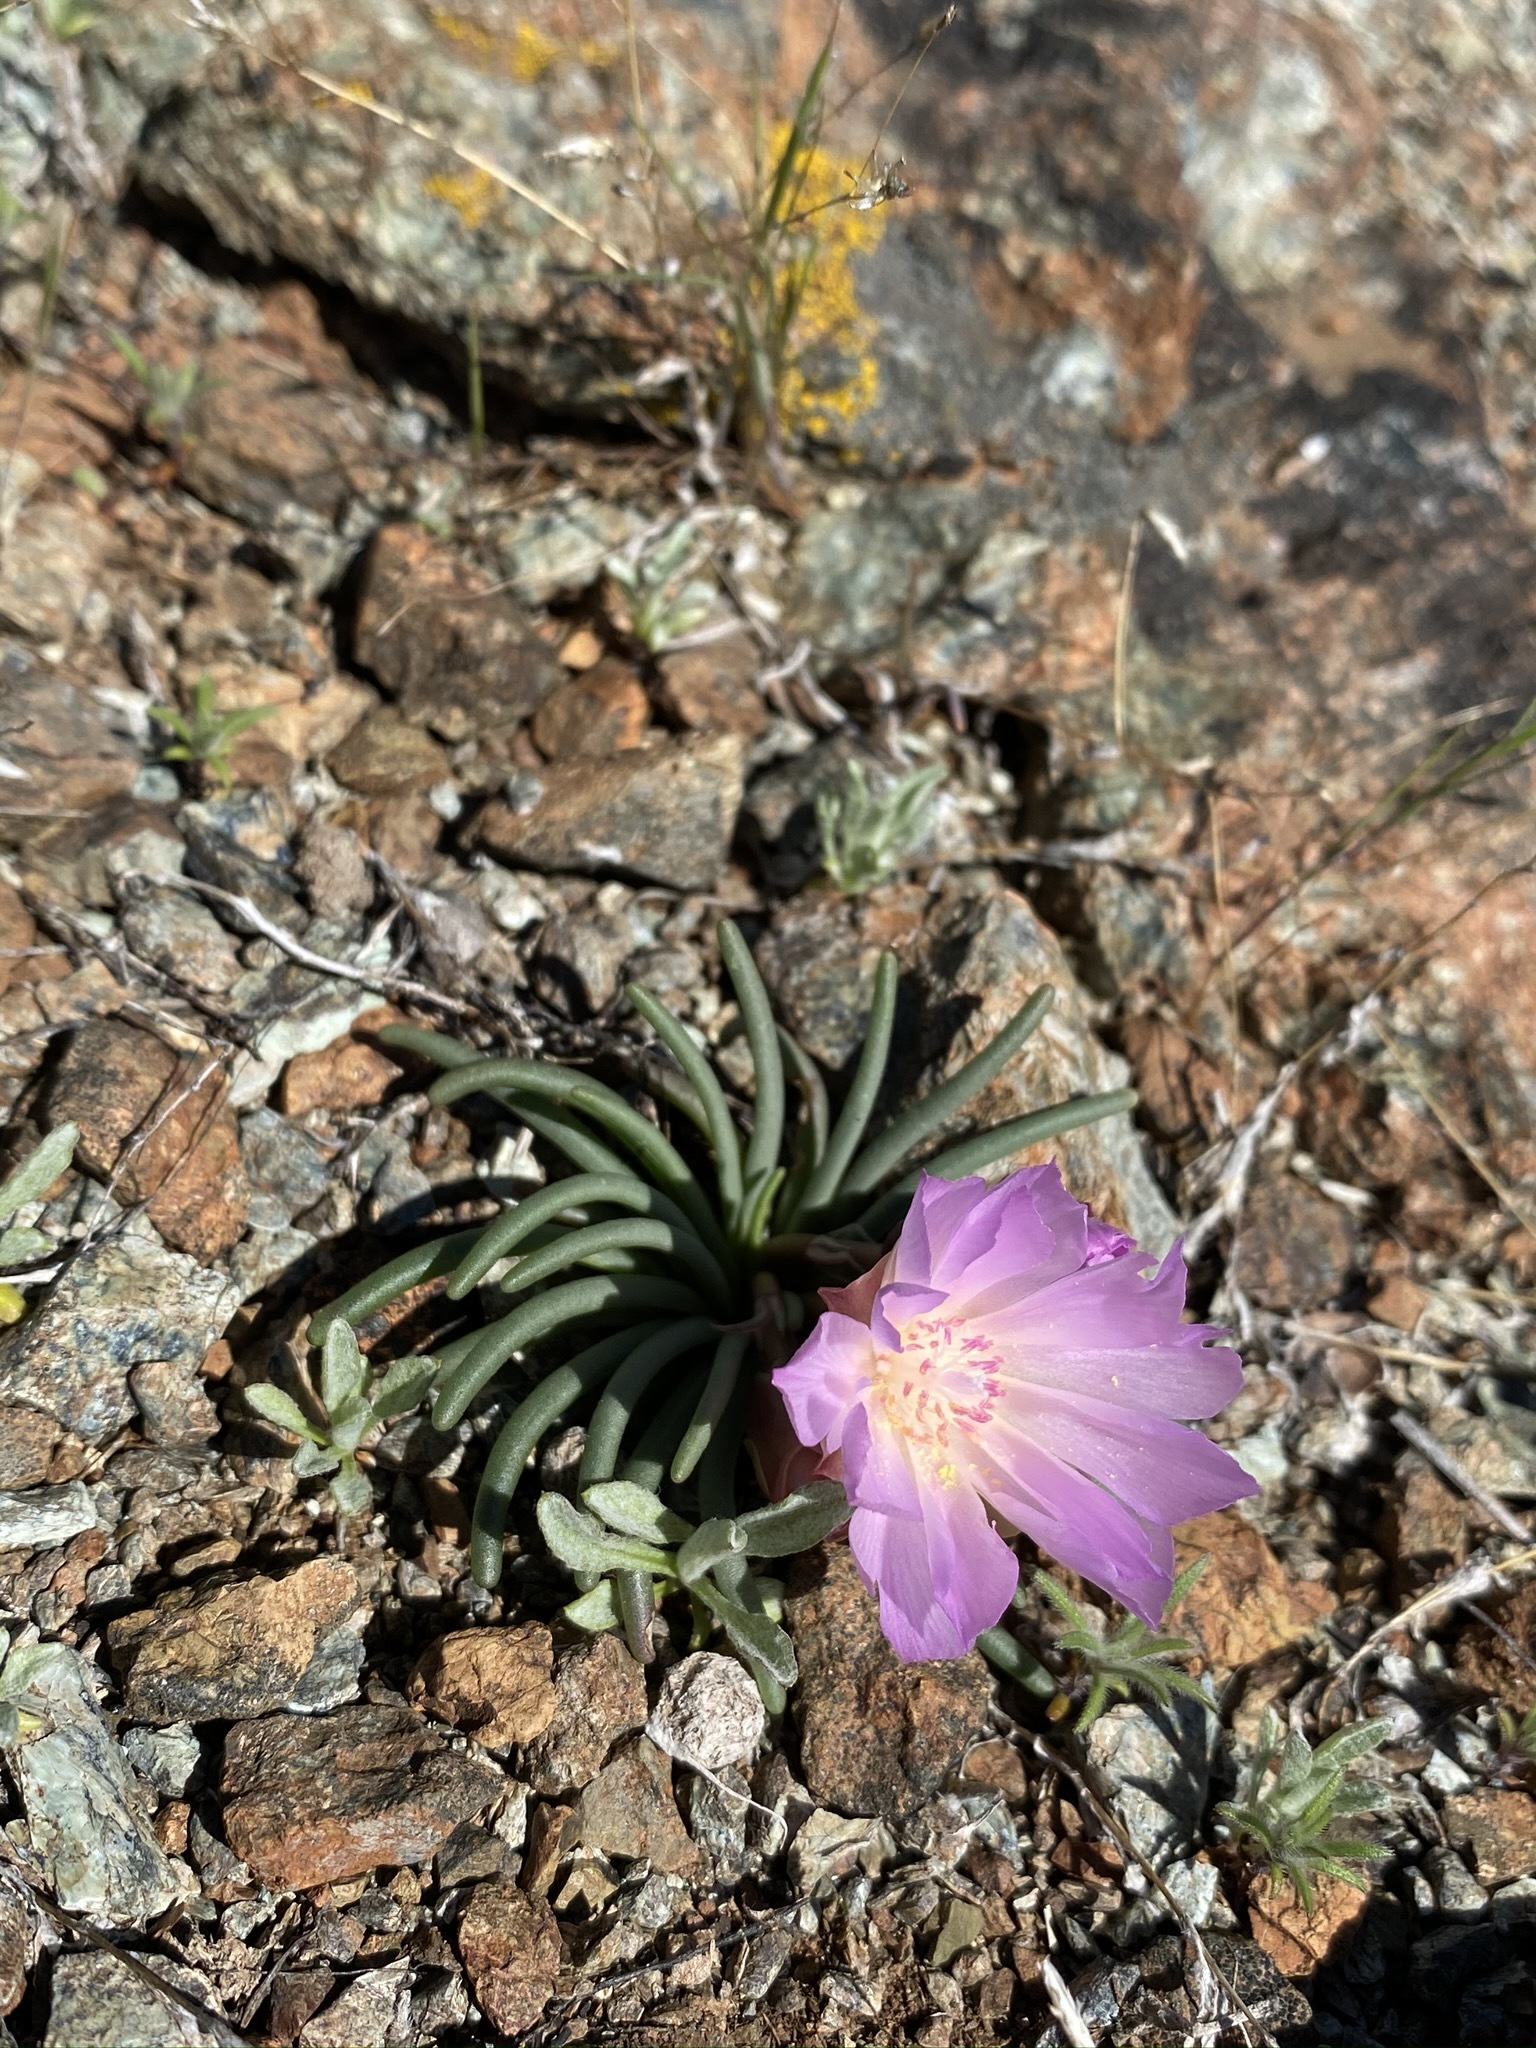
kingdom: Plantae
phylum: Tracheophyta
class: Magnoliopsida
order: Caryophyllales
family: Montiaceae
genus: Lewisia
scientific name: Lewisia rediviva
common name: Bitter-root
